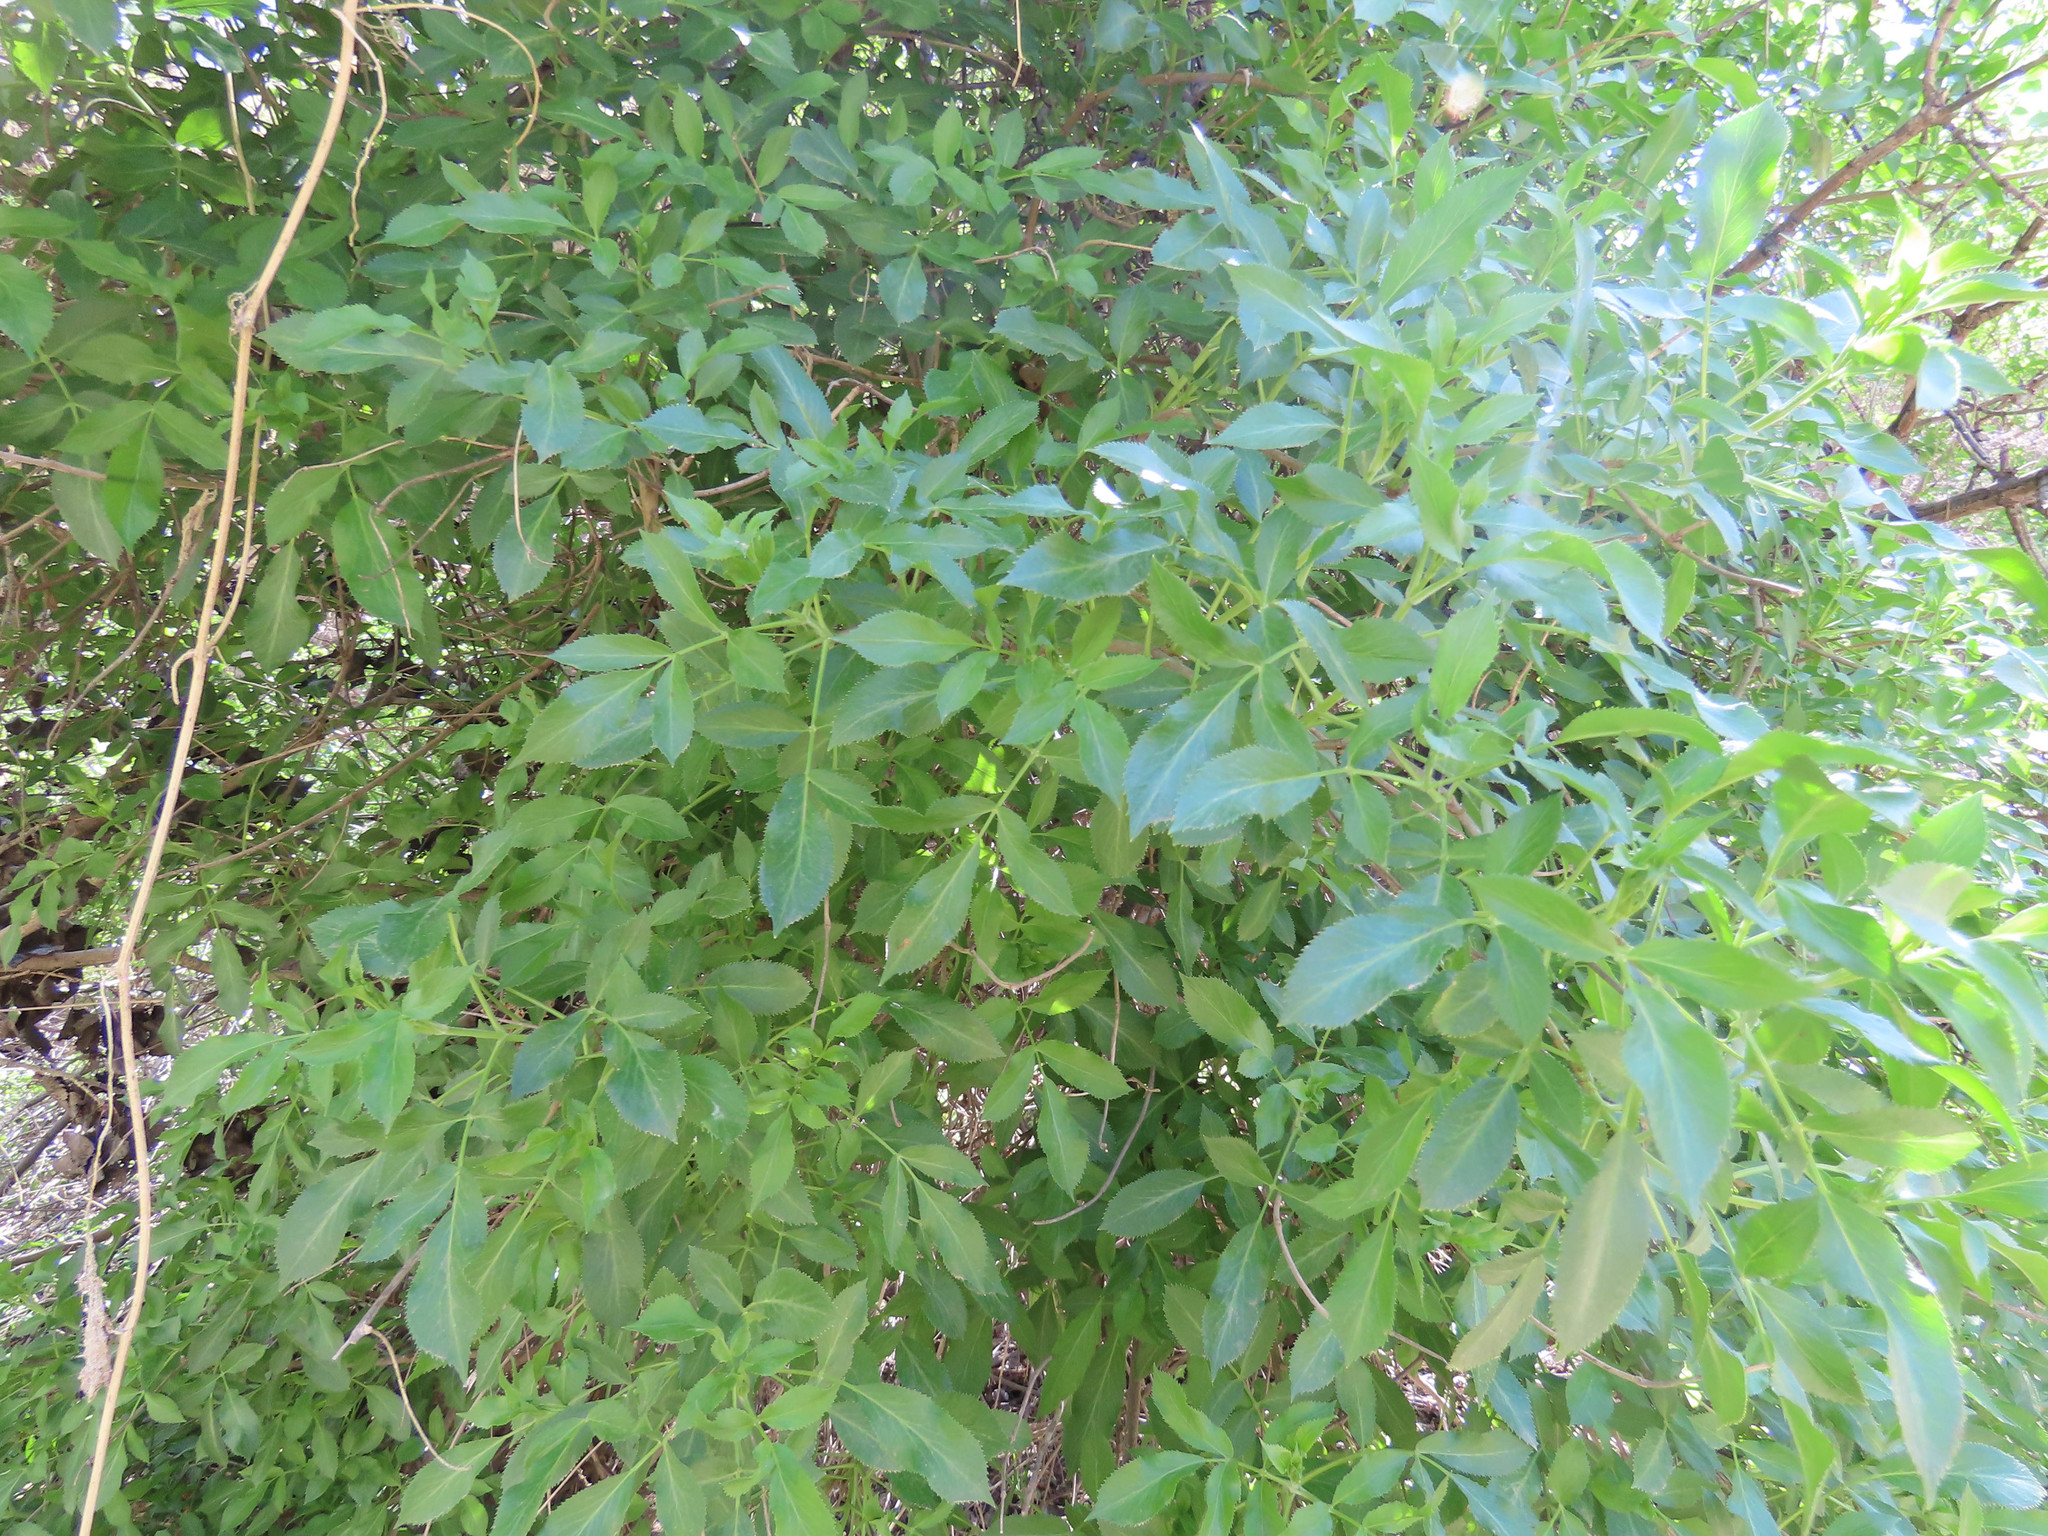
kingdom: Plantae
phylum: Tracheophyta
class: Magnoliopsida
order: Dipsacales
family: Viburnaceae
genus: Sambucus
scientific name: Sambucus cerulea
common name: Blue elder
